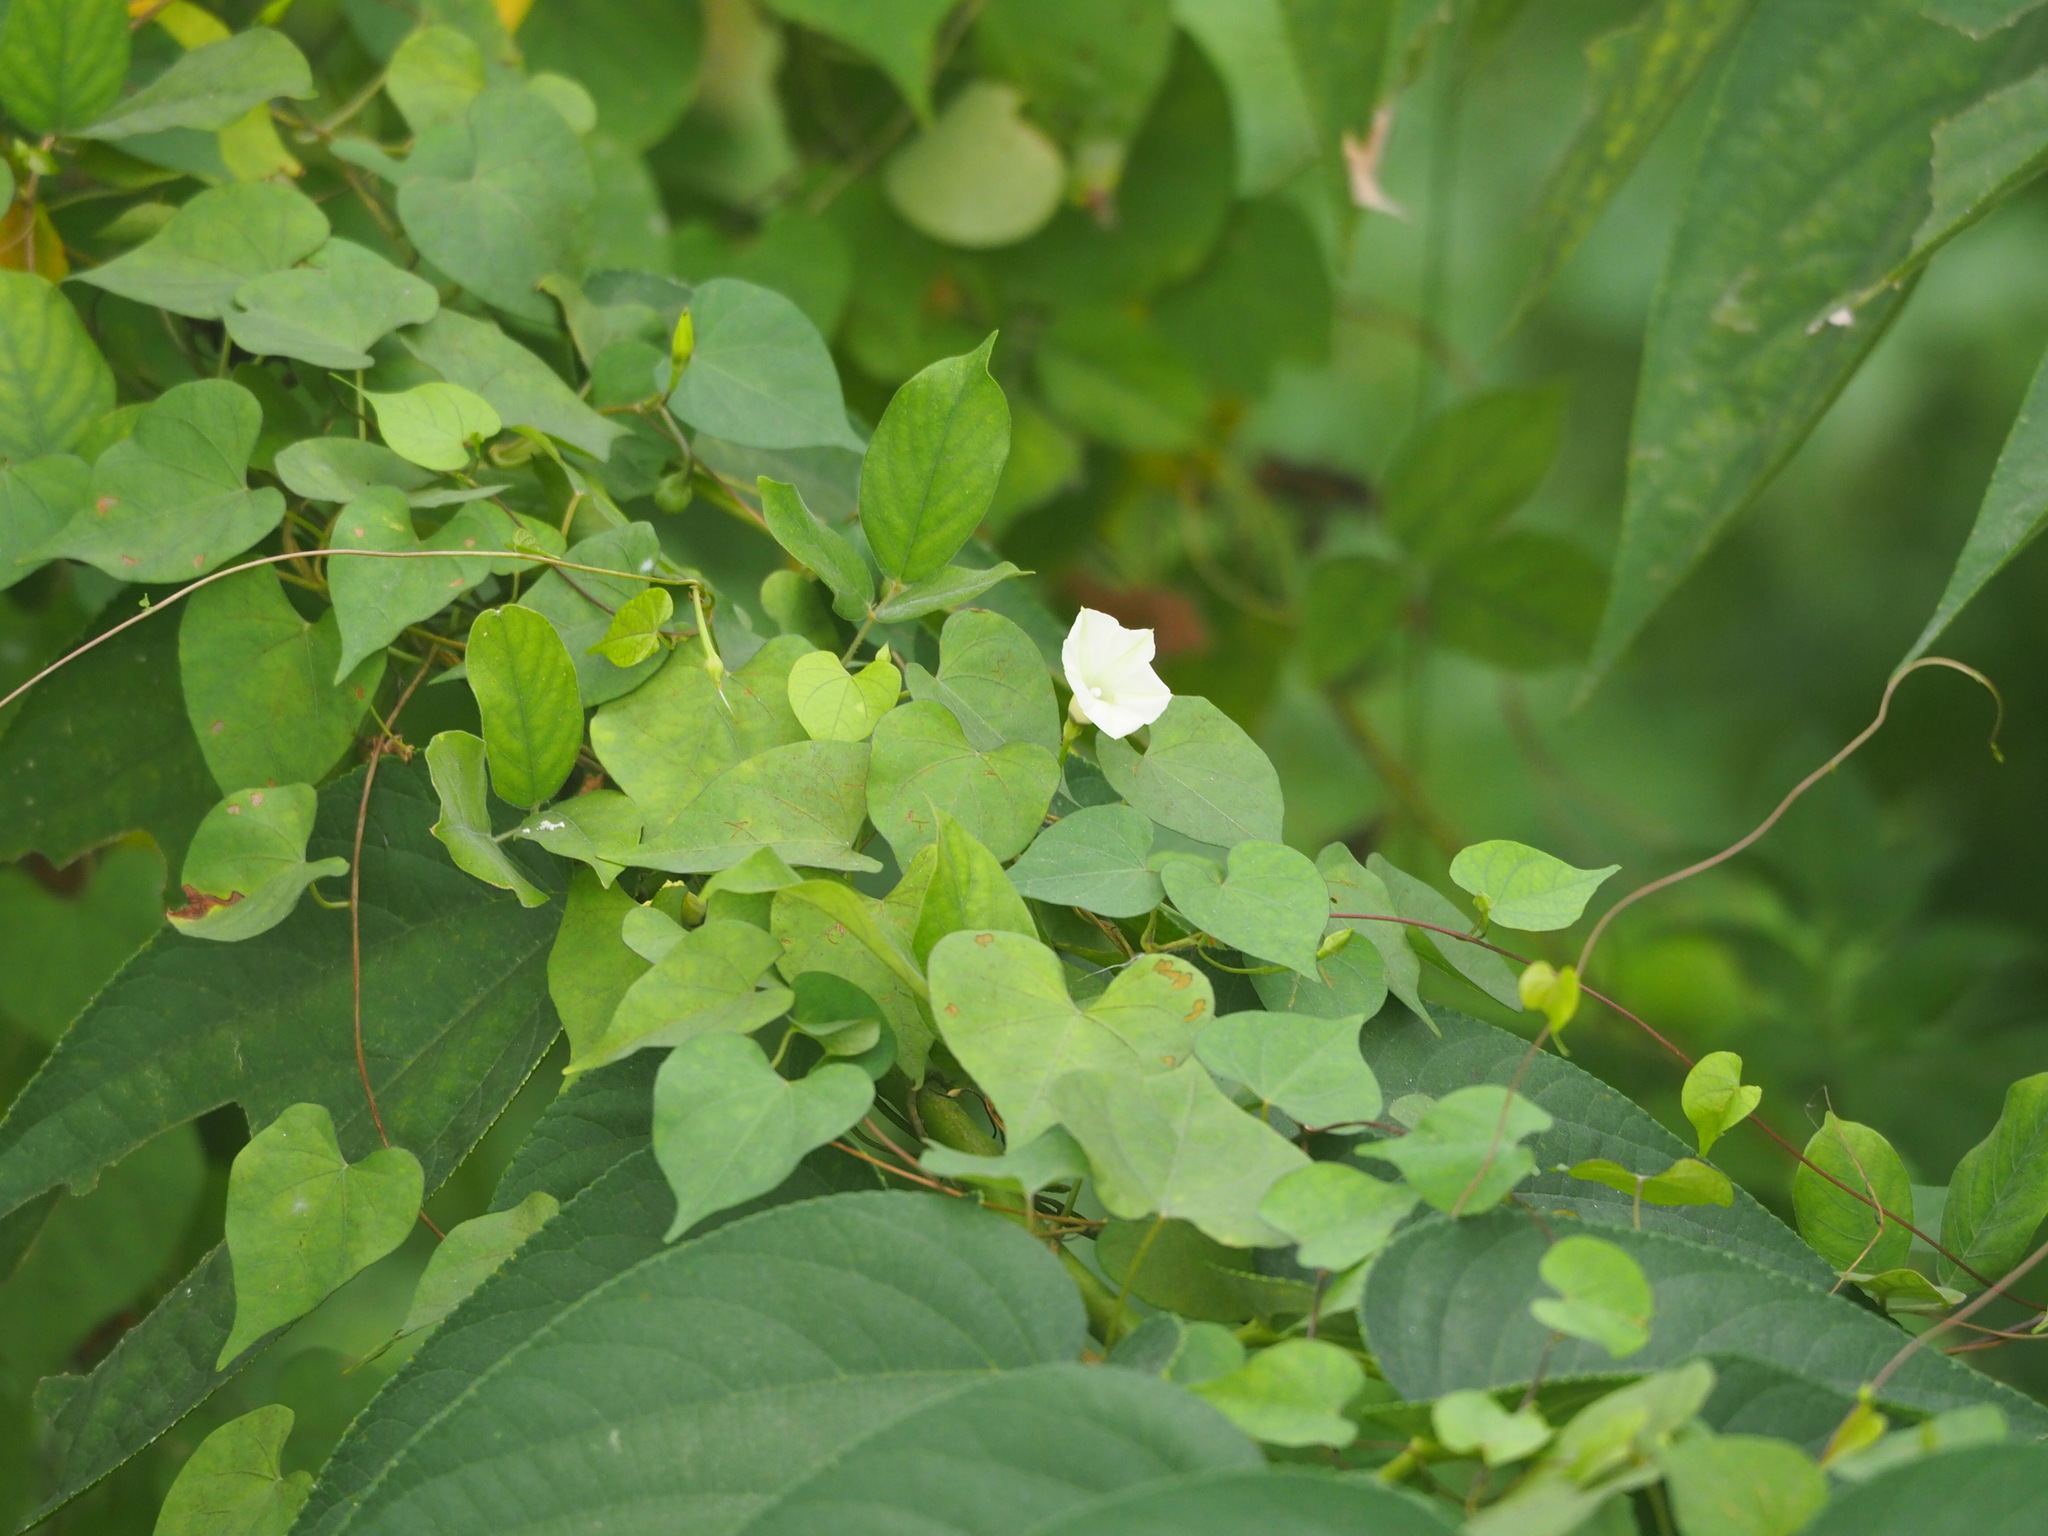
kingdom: Plantae
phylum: Tracheophyta
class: Magnoliopsida
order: Solanales
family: Convolvulaceae
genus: Ipomoea
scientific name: Ipomoea obscura
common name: Obscure morning-glory
